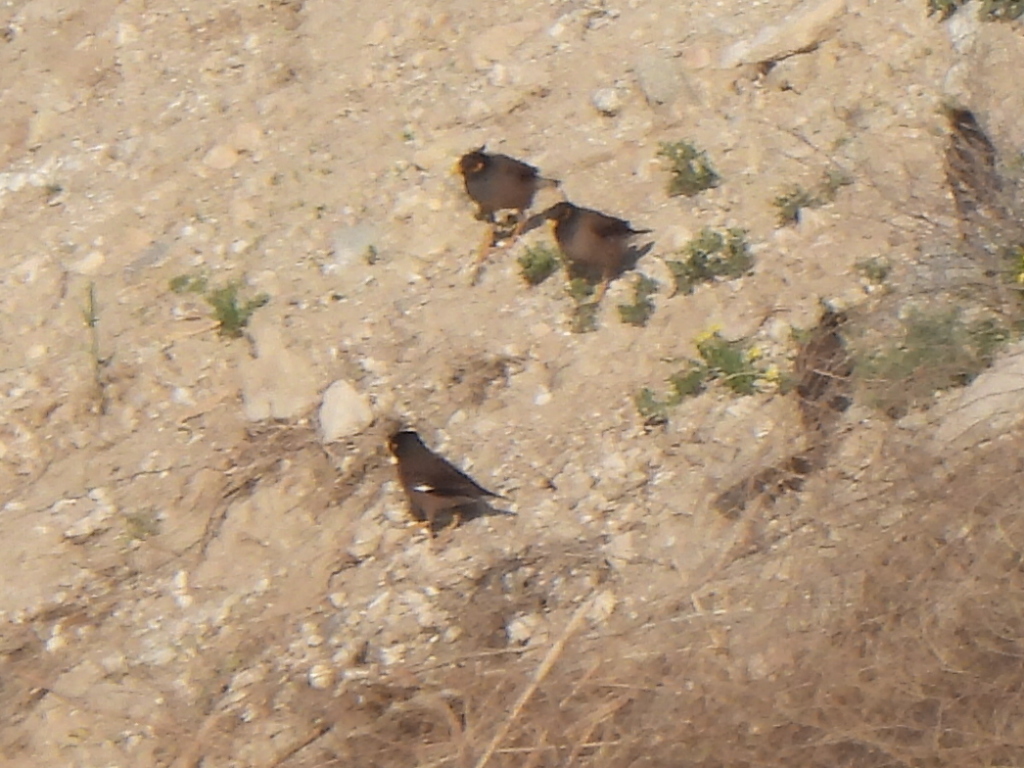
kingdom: Animalia
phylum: Chordata
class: Aves
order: Passeriformes
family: Sturnidae
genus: Acridotheres
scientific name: Acridotheres tristis
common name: Common myna
